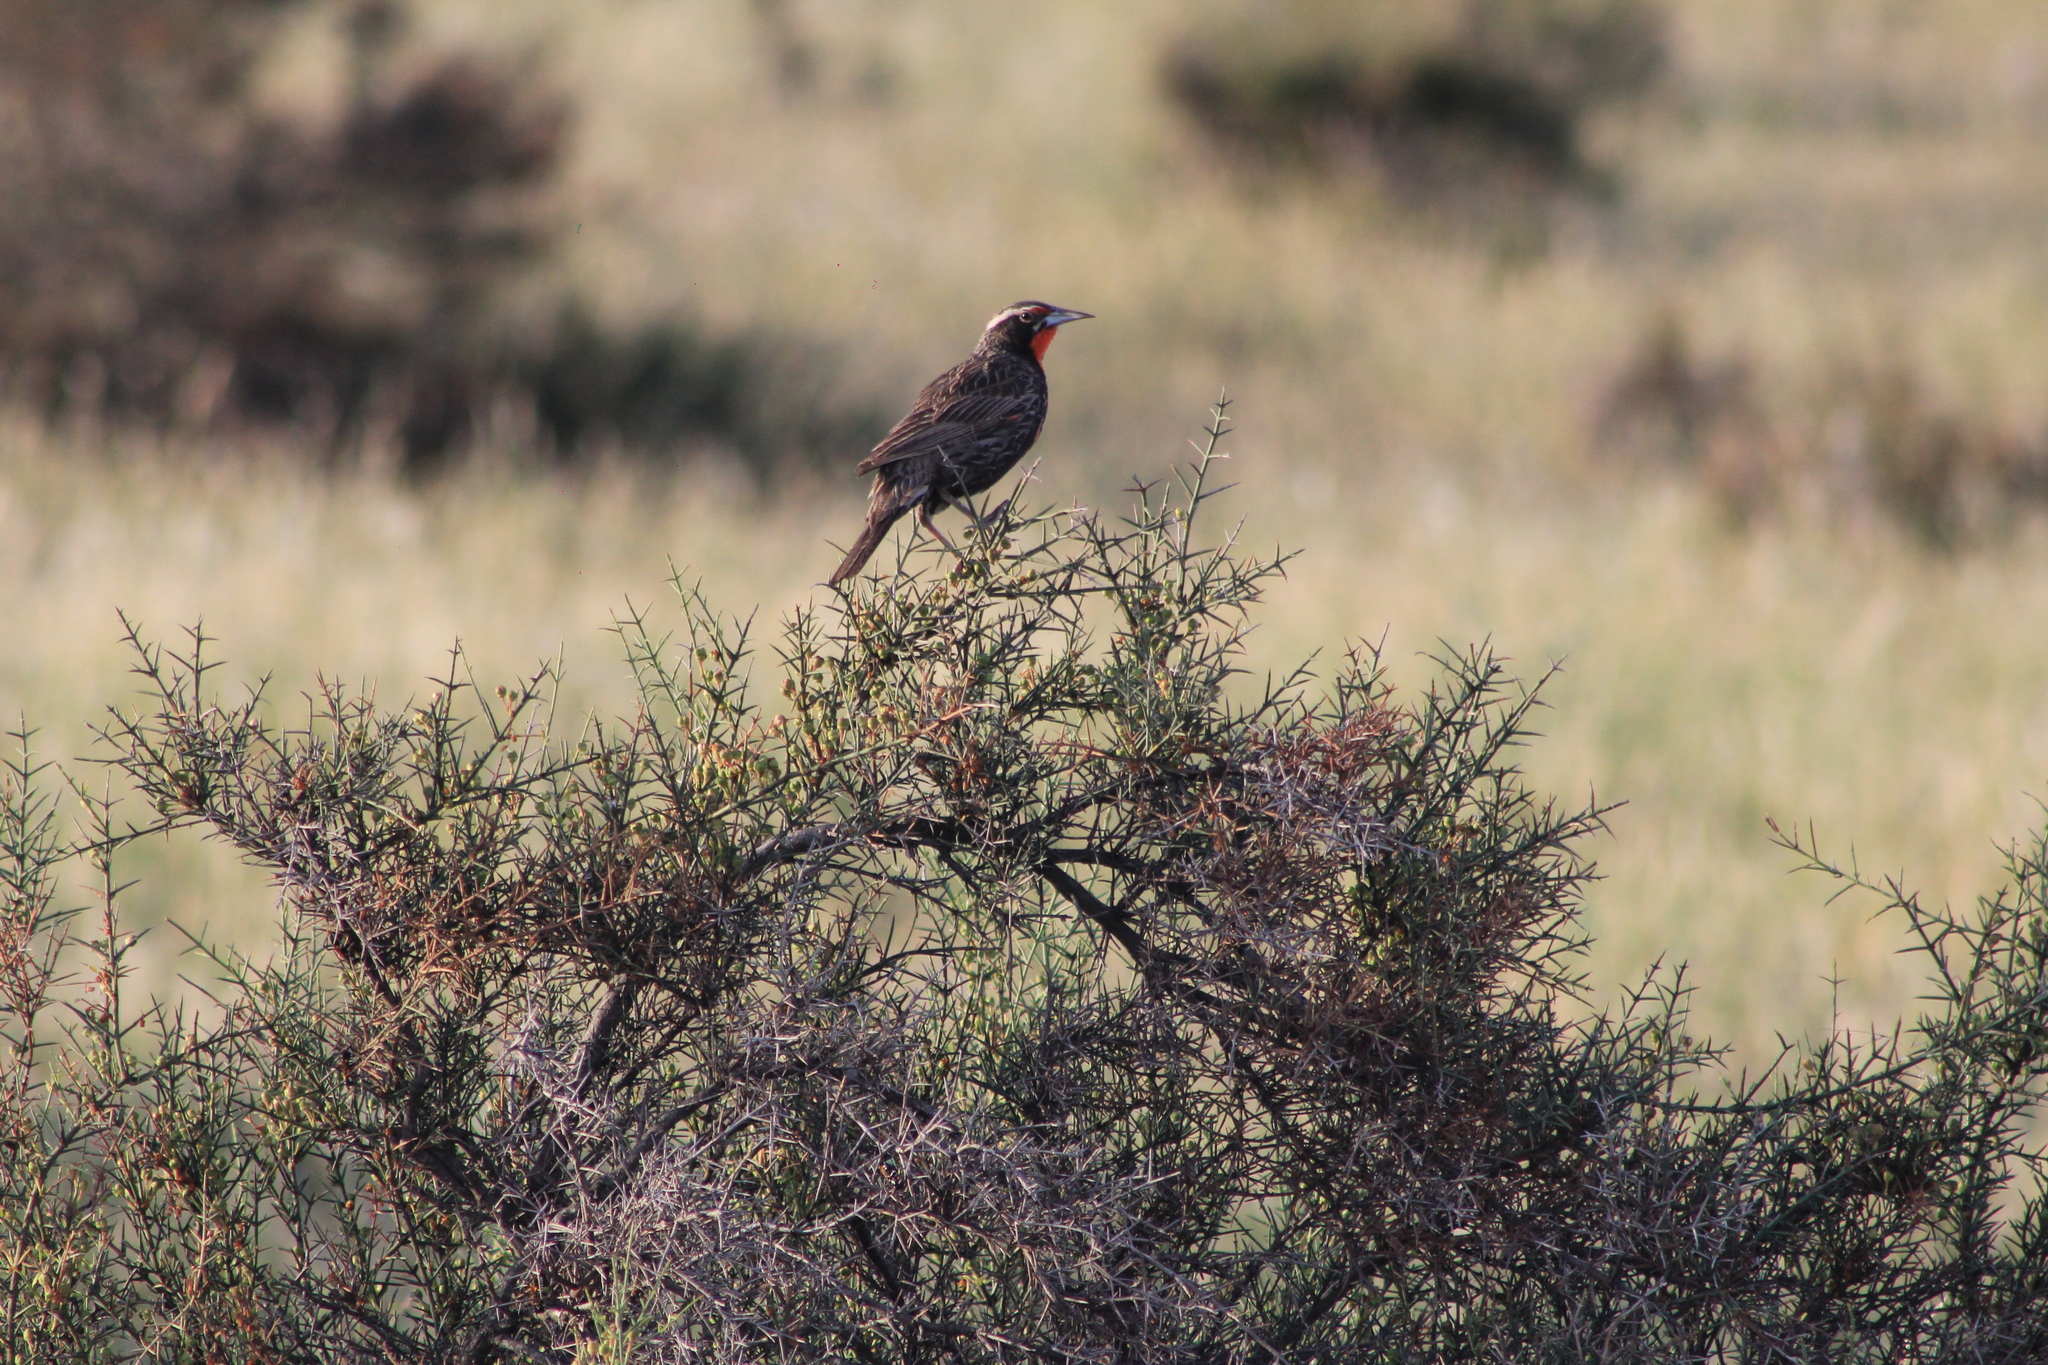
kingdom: Animalia
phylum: Chordata
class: Aves
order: Passeriformes
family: Icteridae
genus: Sturnella
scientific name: Sturnella loyca
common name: Long-tailed meadowlark
